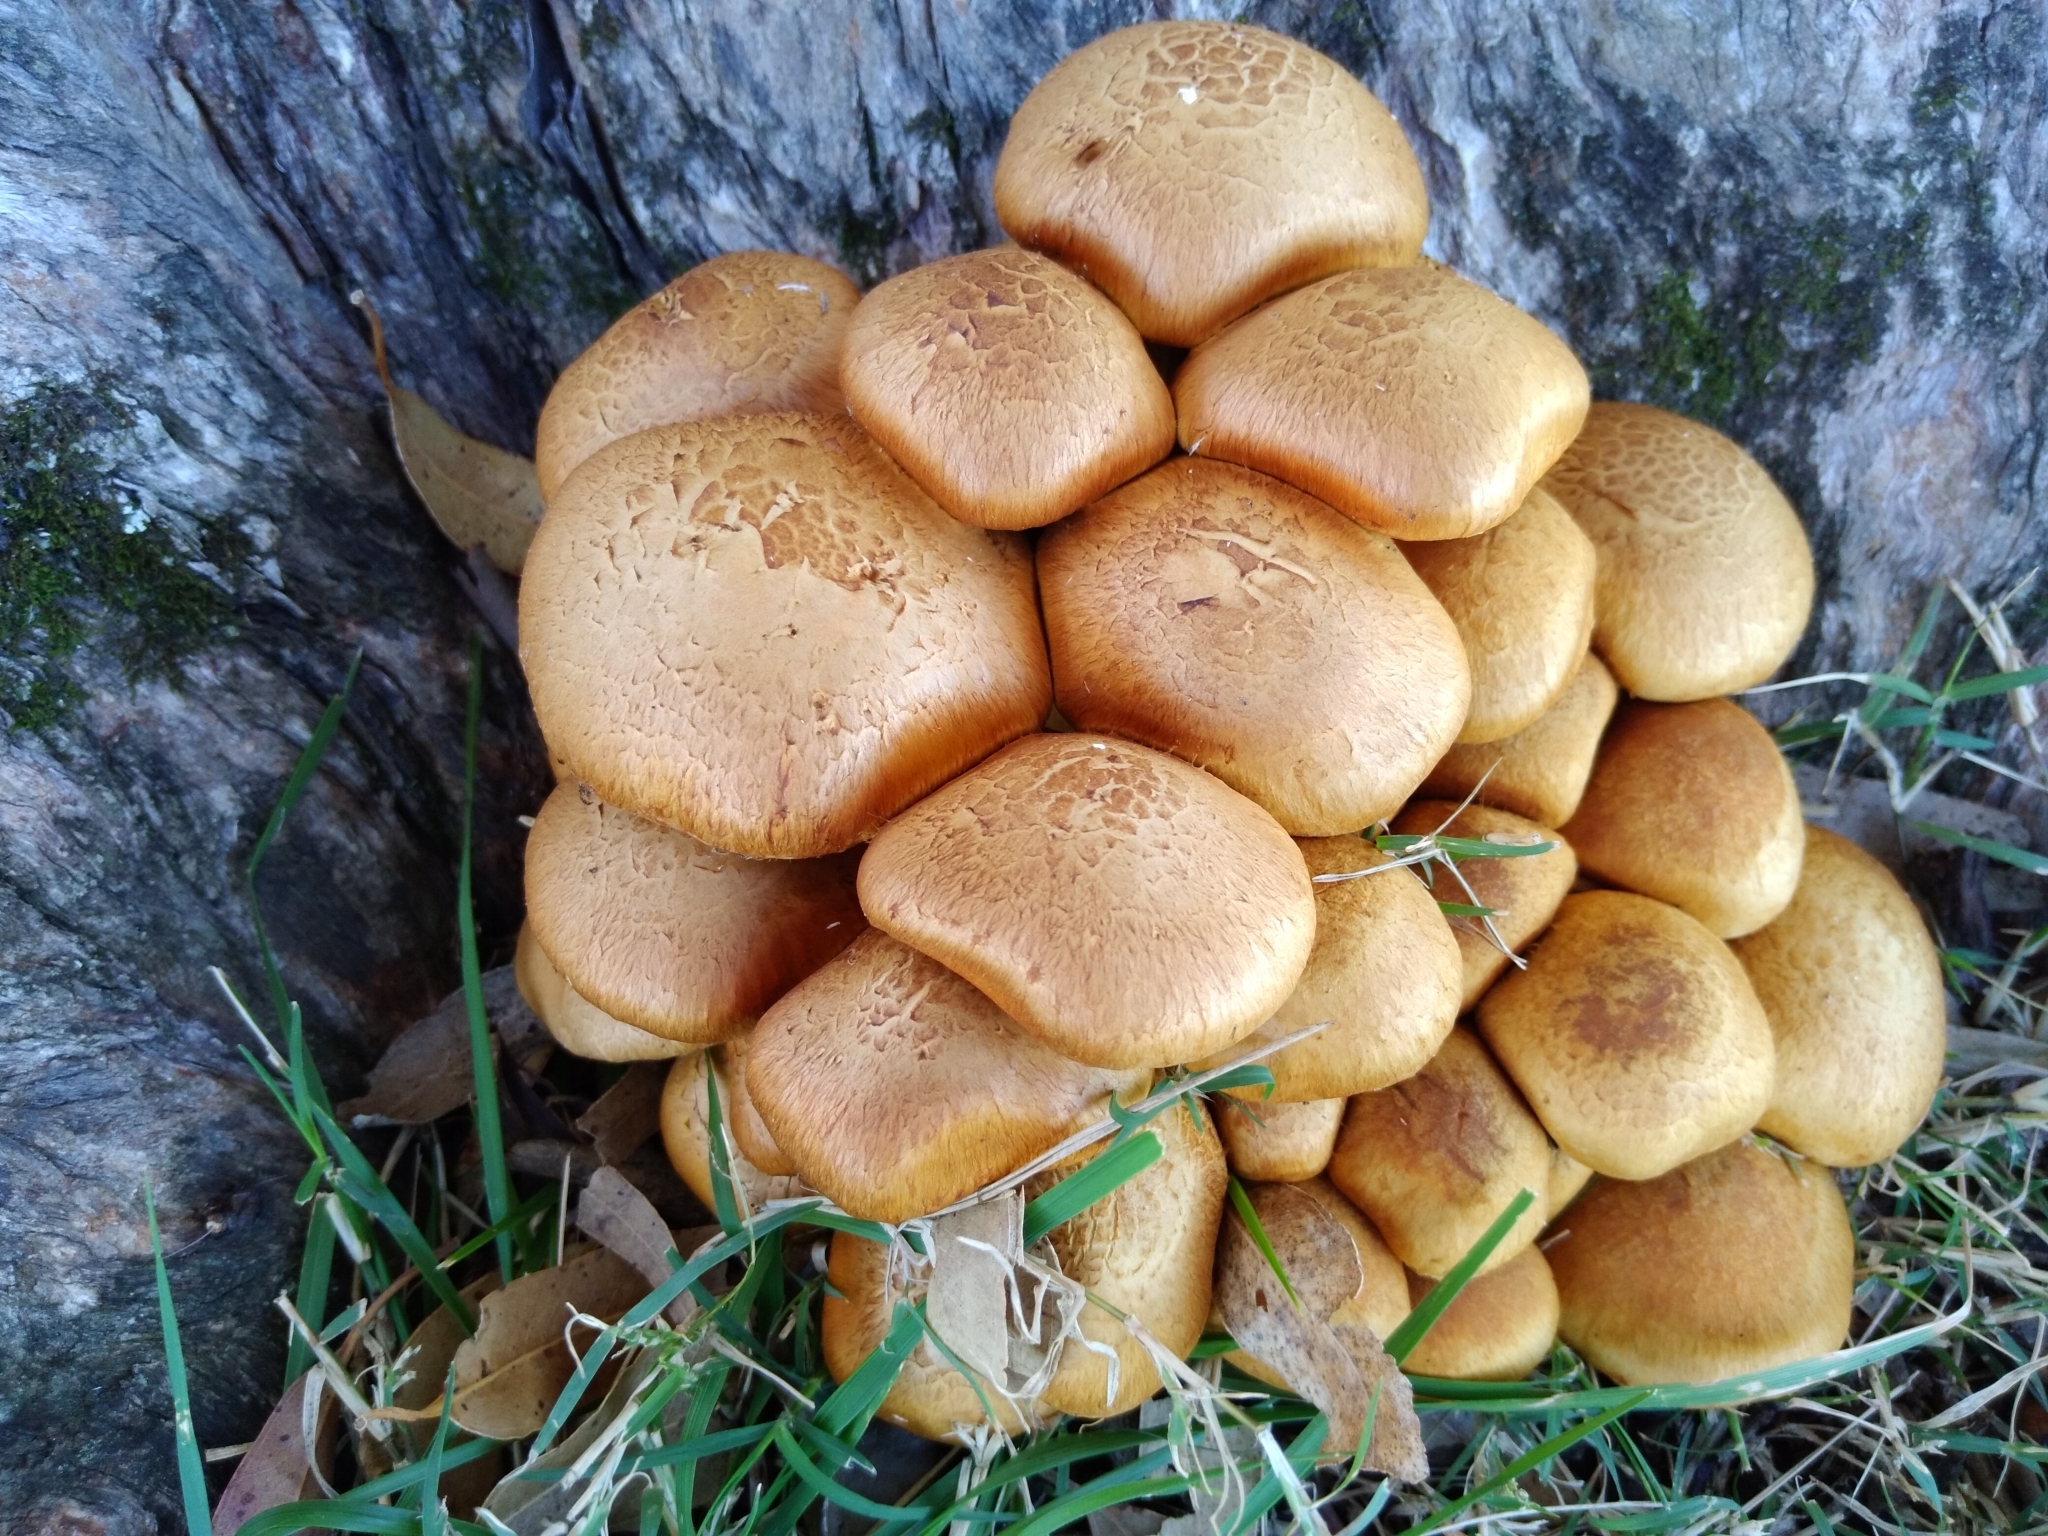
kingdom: Fungi
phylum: Basidiomycota
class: Agaricomycetes
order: Agaricales
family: Hymenogastraceae
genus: Gymnopilus
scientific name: Gymnopilus junonius
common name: Spectacular rustgill
